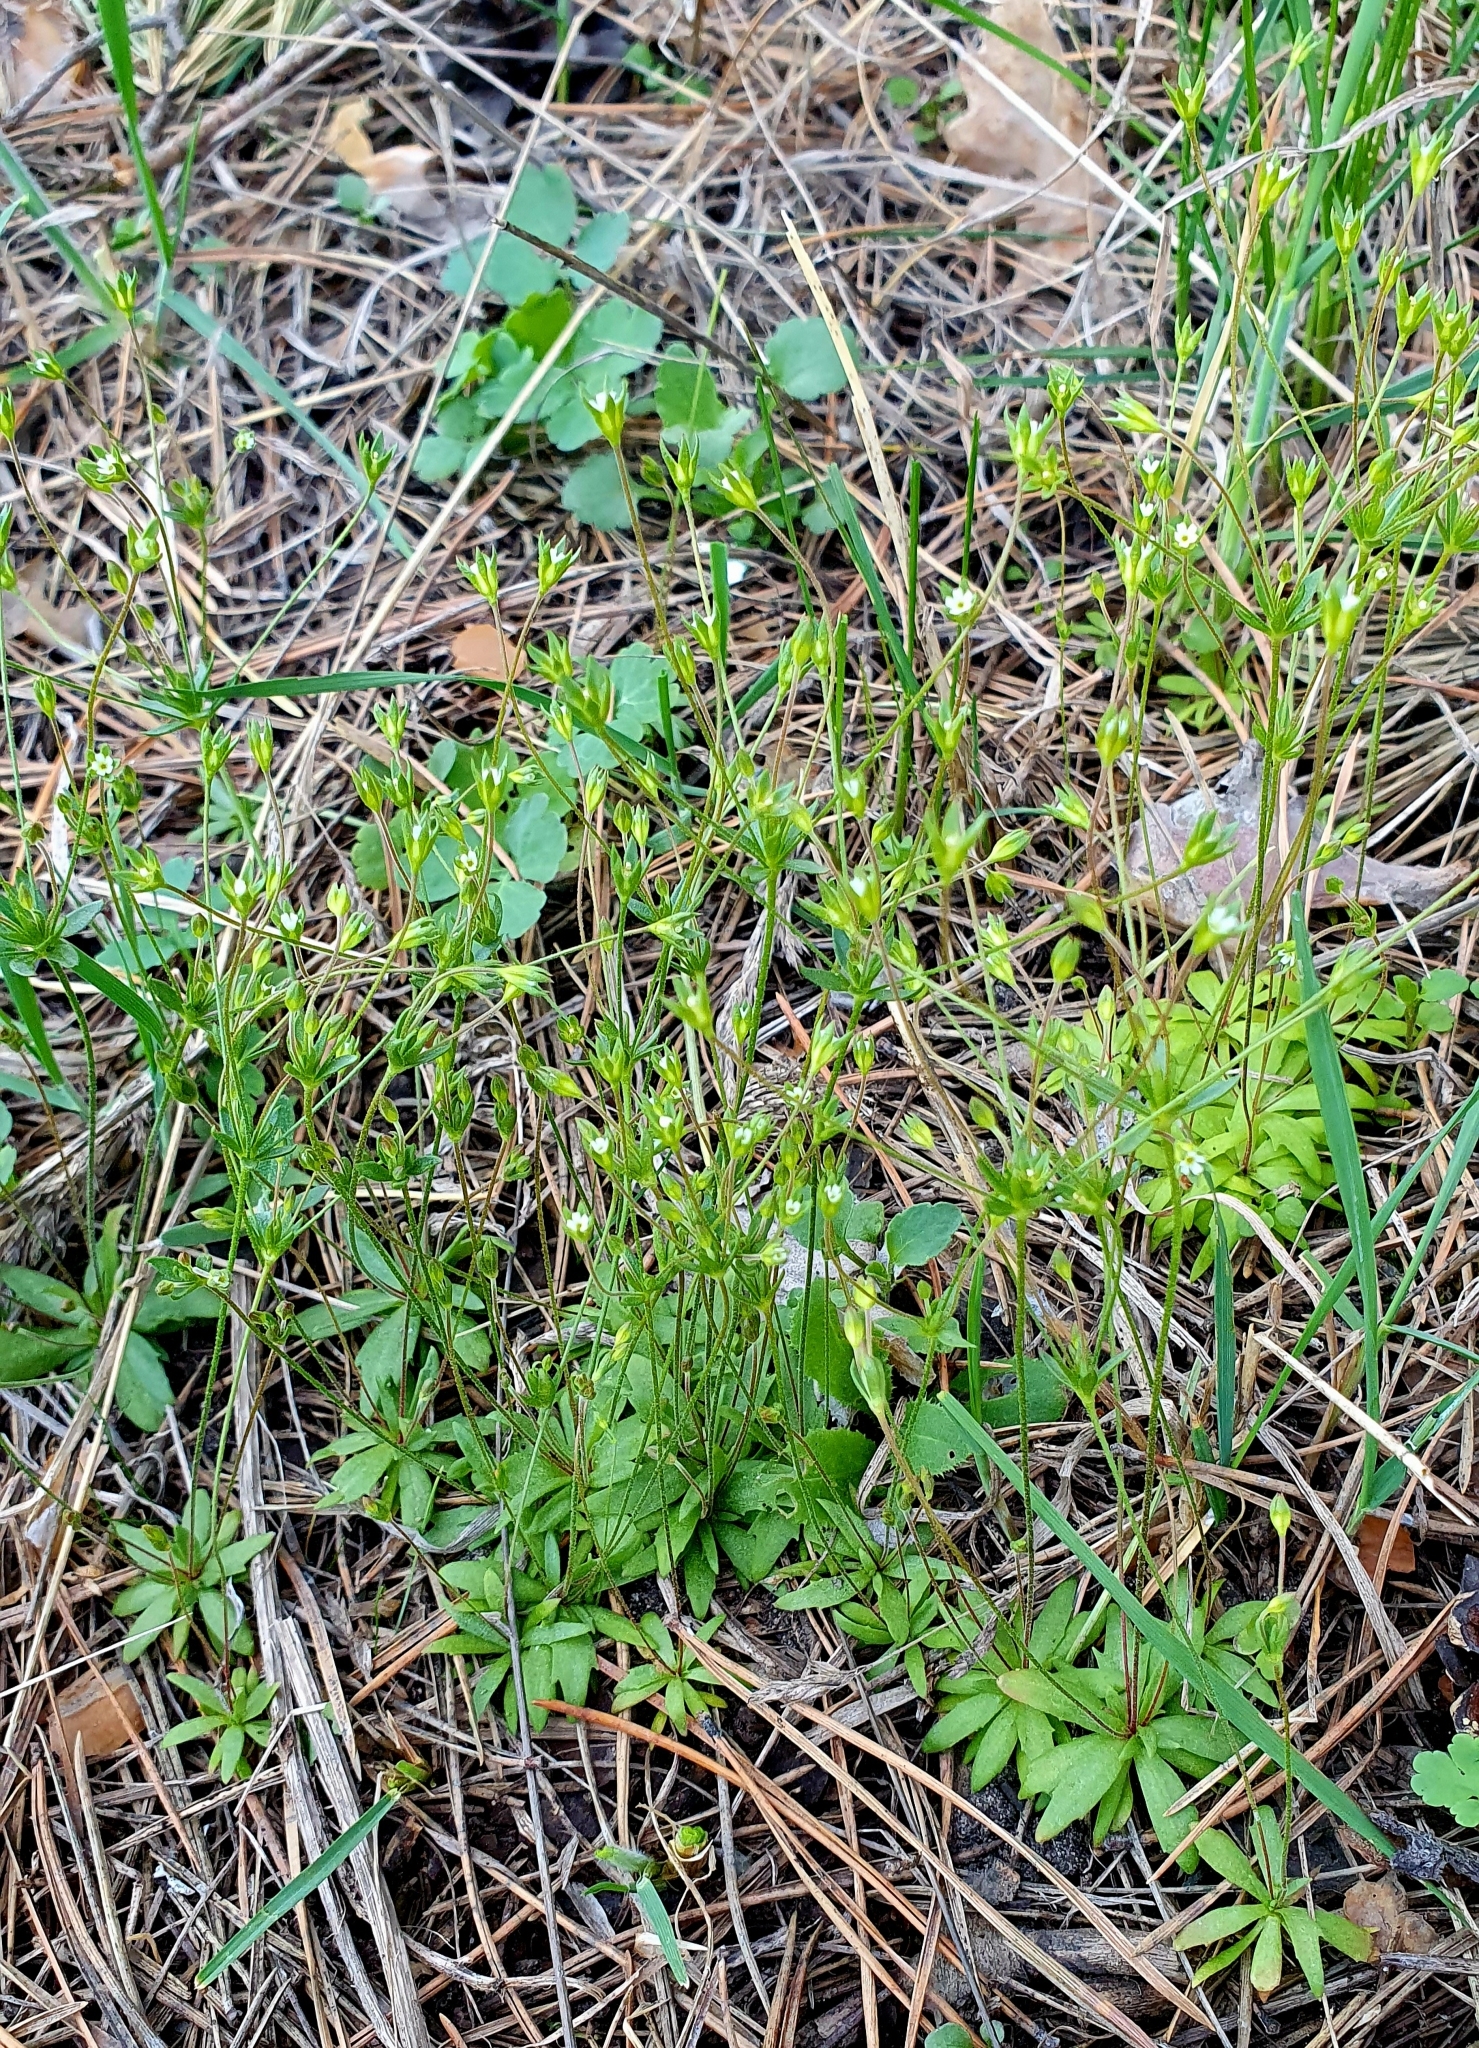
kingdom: Plantae
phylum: Tracheophyta
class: Magnoliopsida
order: Ericales
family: Primulaceae
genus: Androsace
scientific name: Androsace elongata
